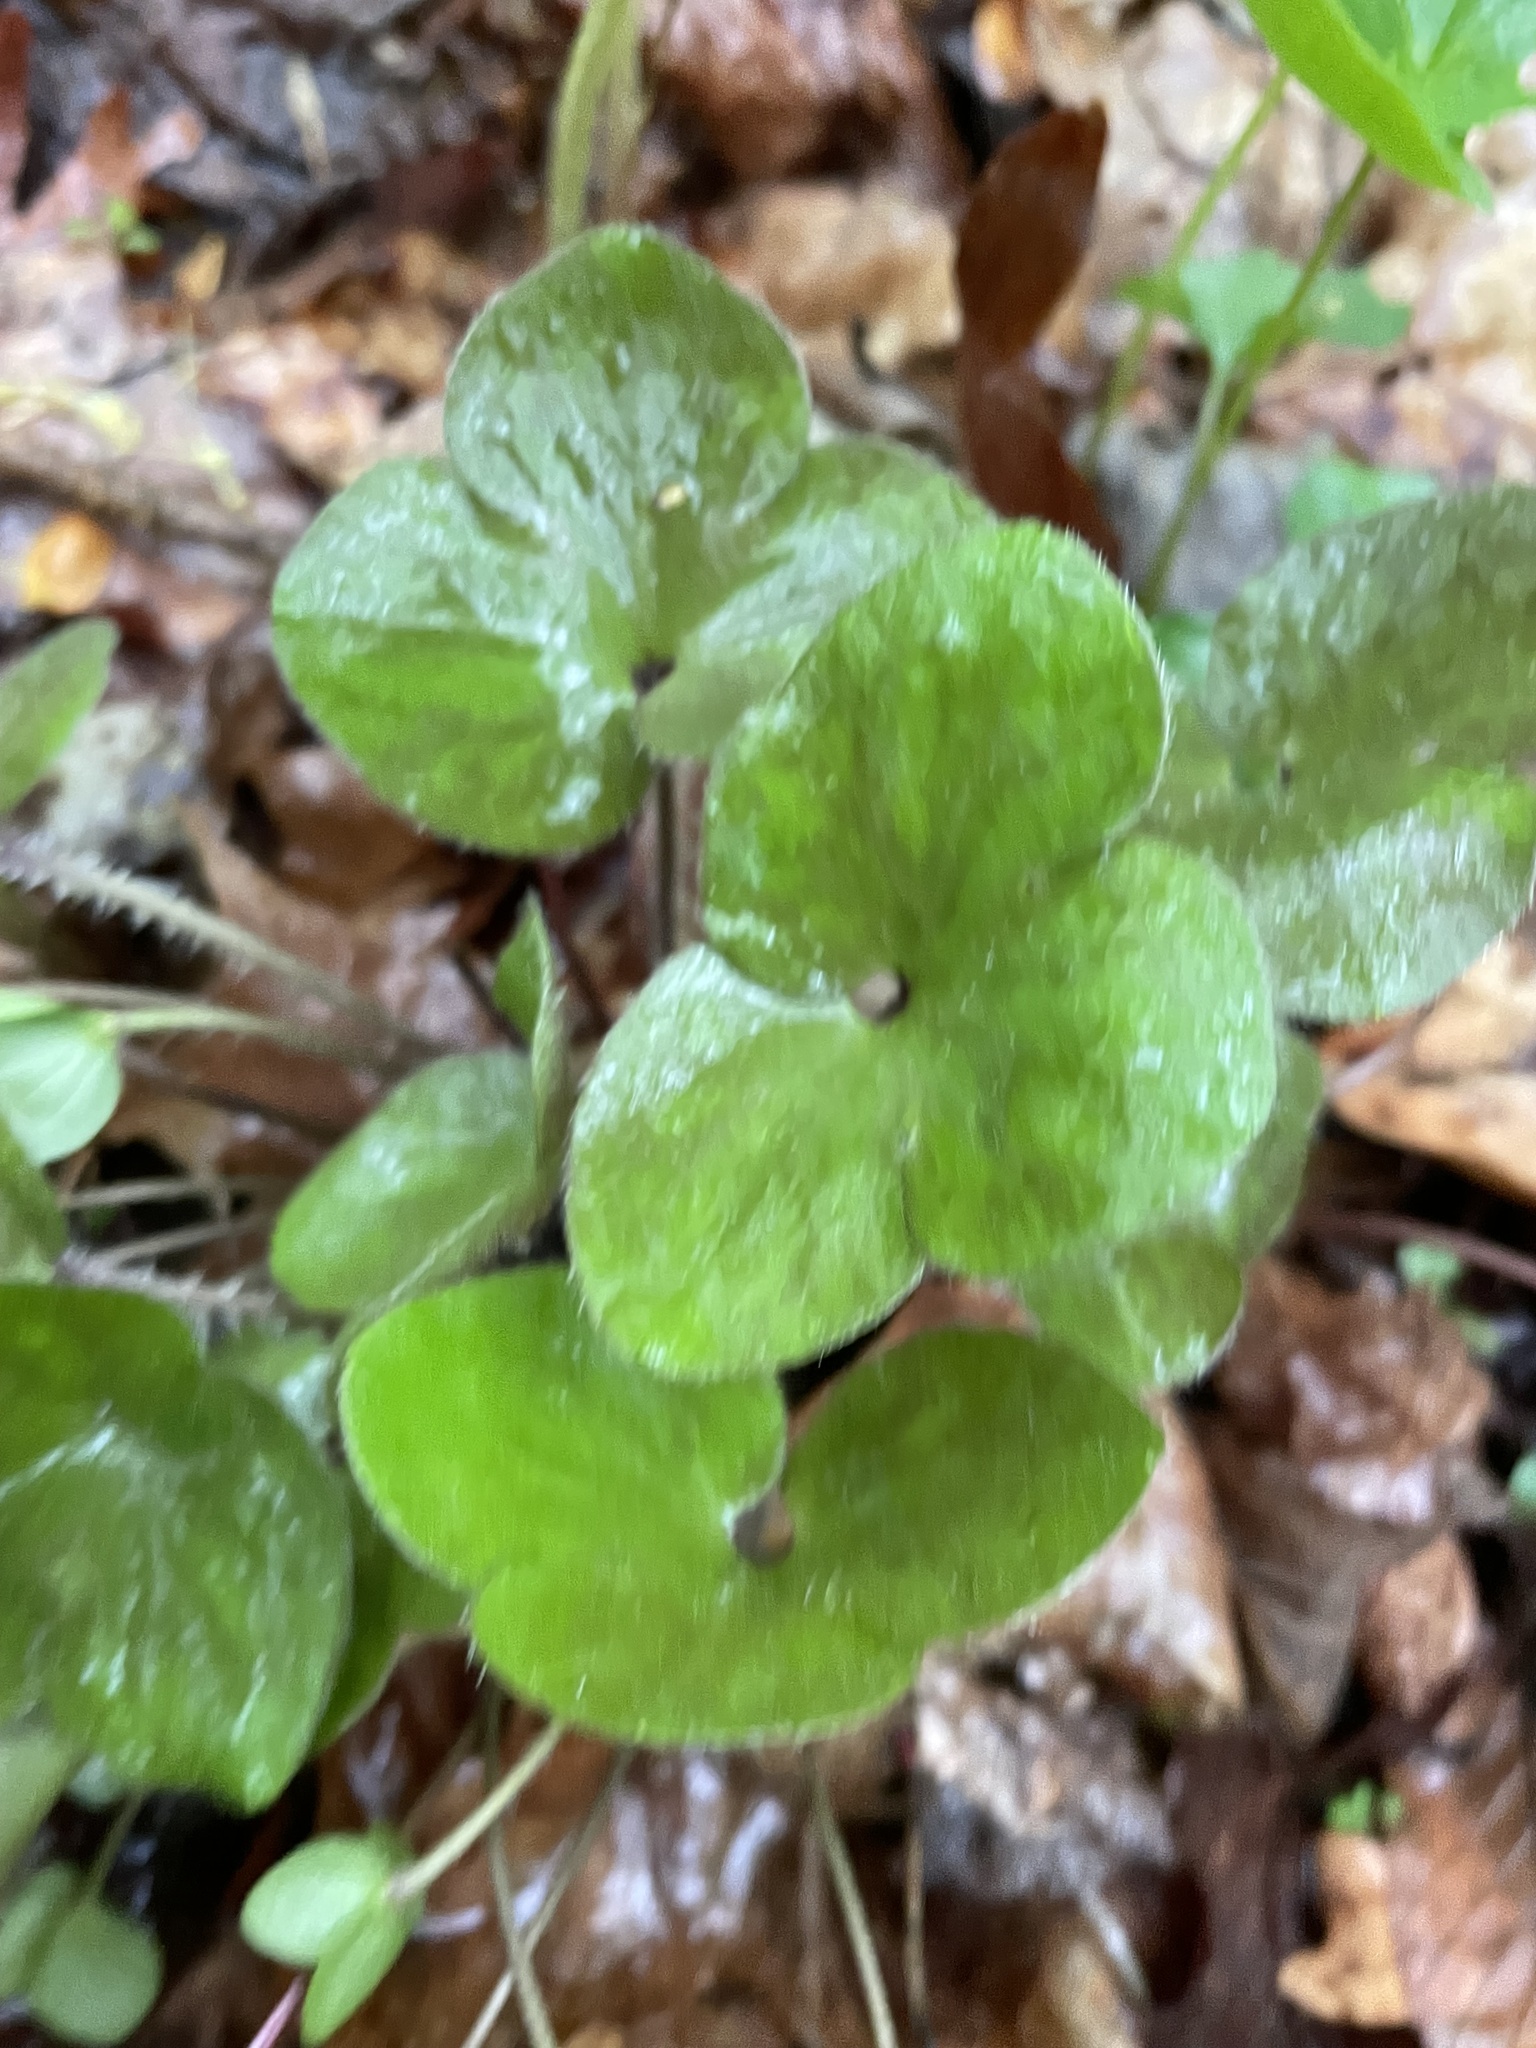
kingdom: Plantae
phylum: Tracheophyta
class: Magnoliopsida
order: Ranunculales
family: Ranunculaceae
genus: Hepatica
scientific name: Hepatica americana
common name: American hepatica
